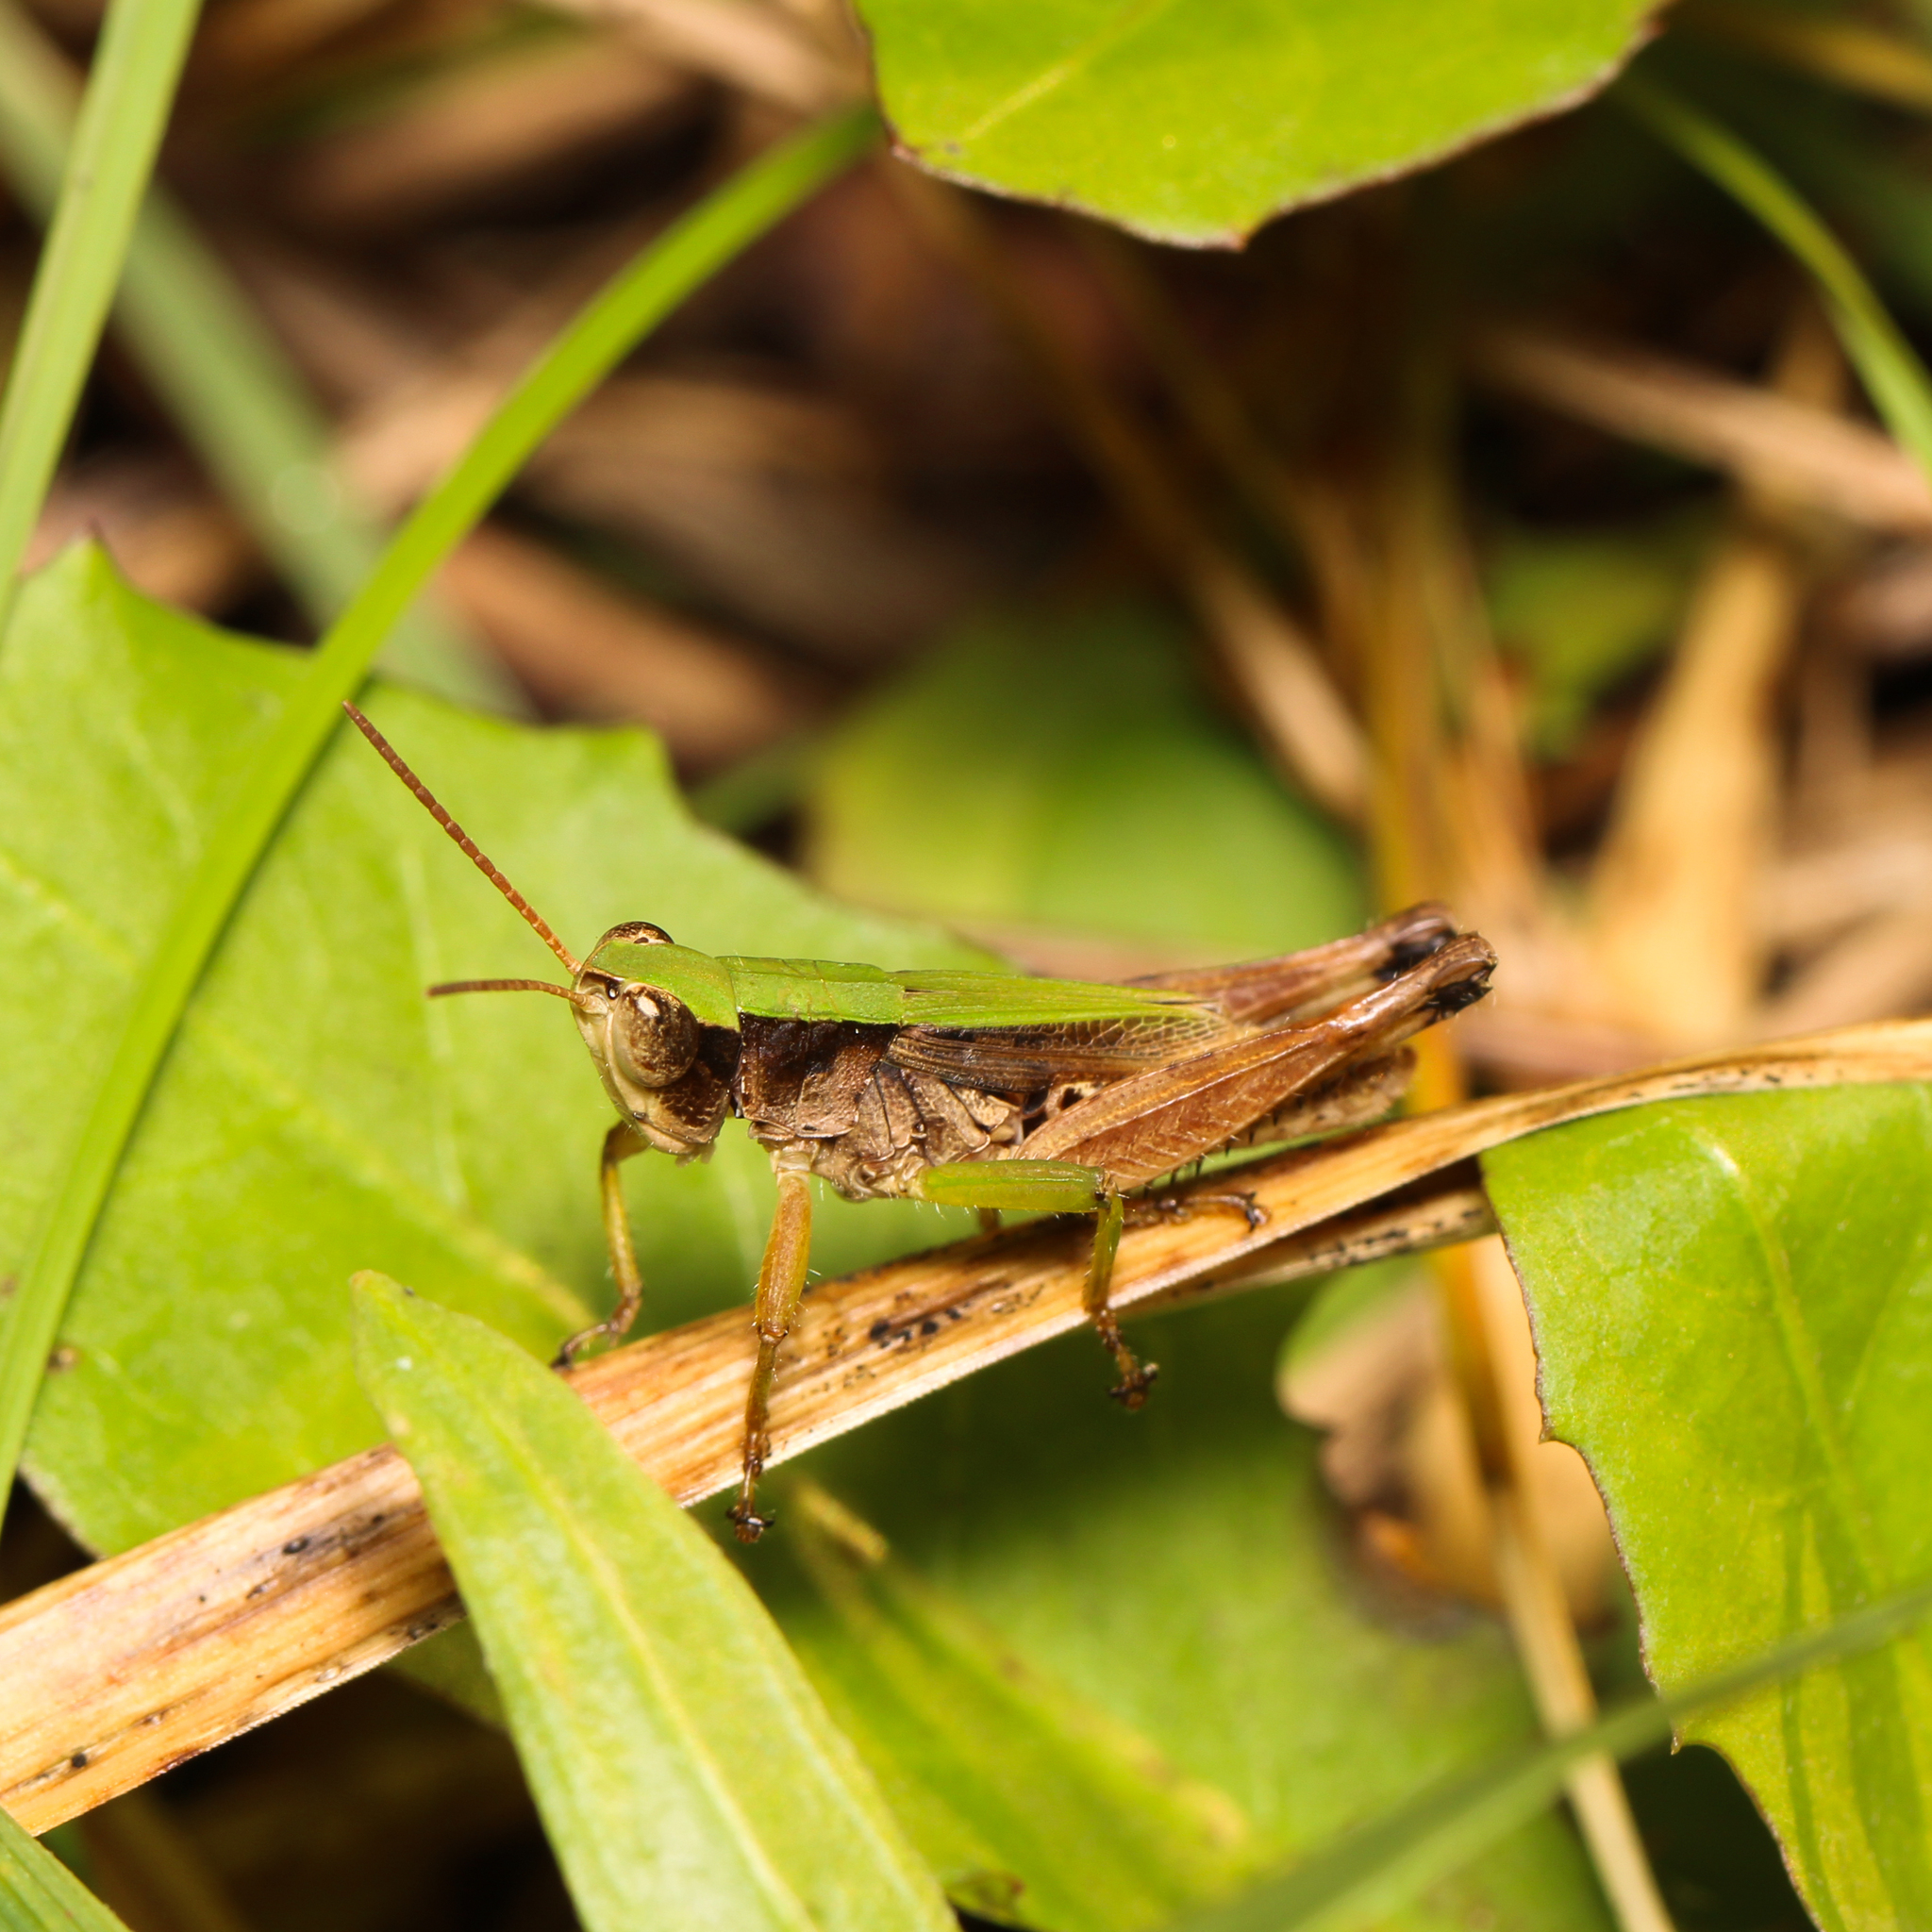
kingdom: Animalia
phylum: Arthropoda
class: Insecta
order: Orthoptera
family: Acrididae
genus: Dichromorpha
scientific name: Dichromorpha viridis
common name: Short-winged green grasshopper
